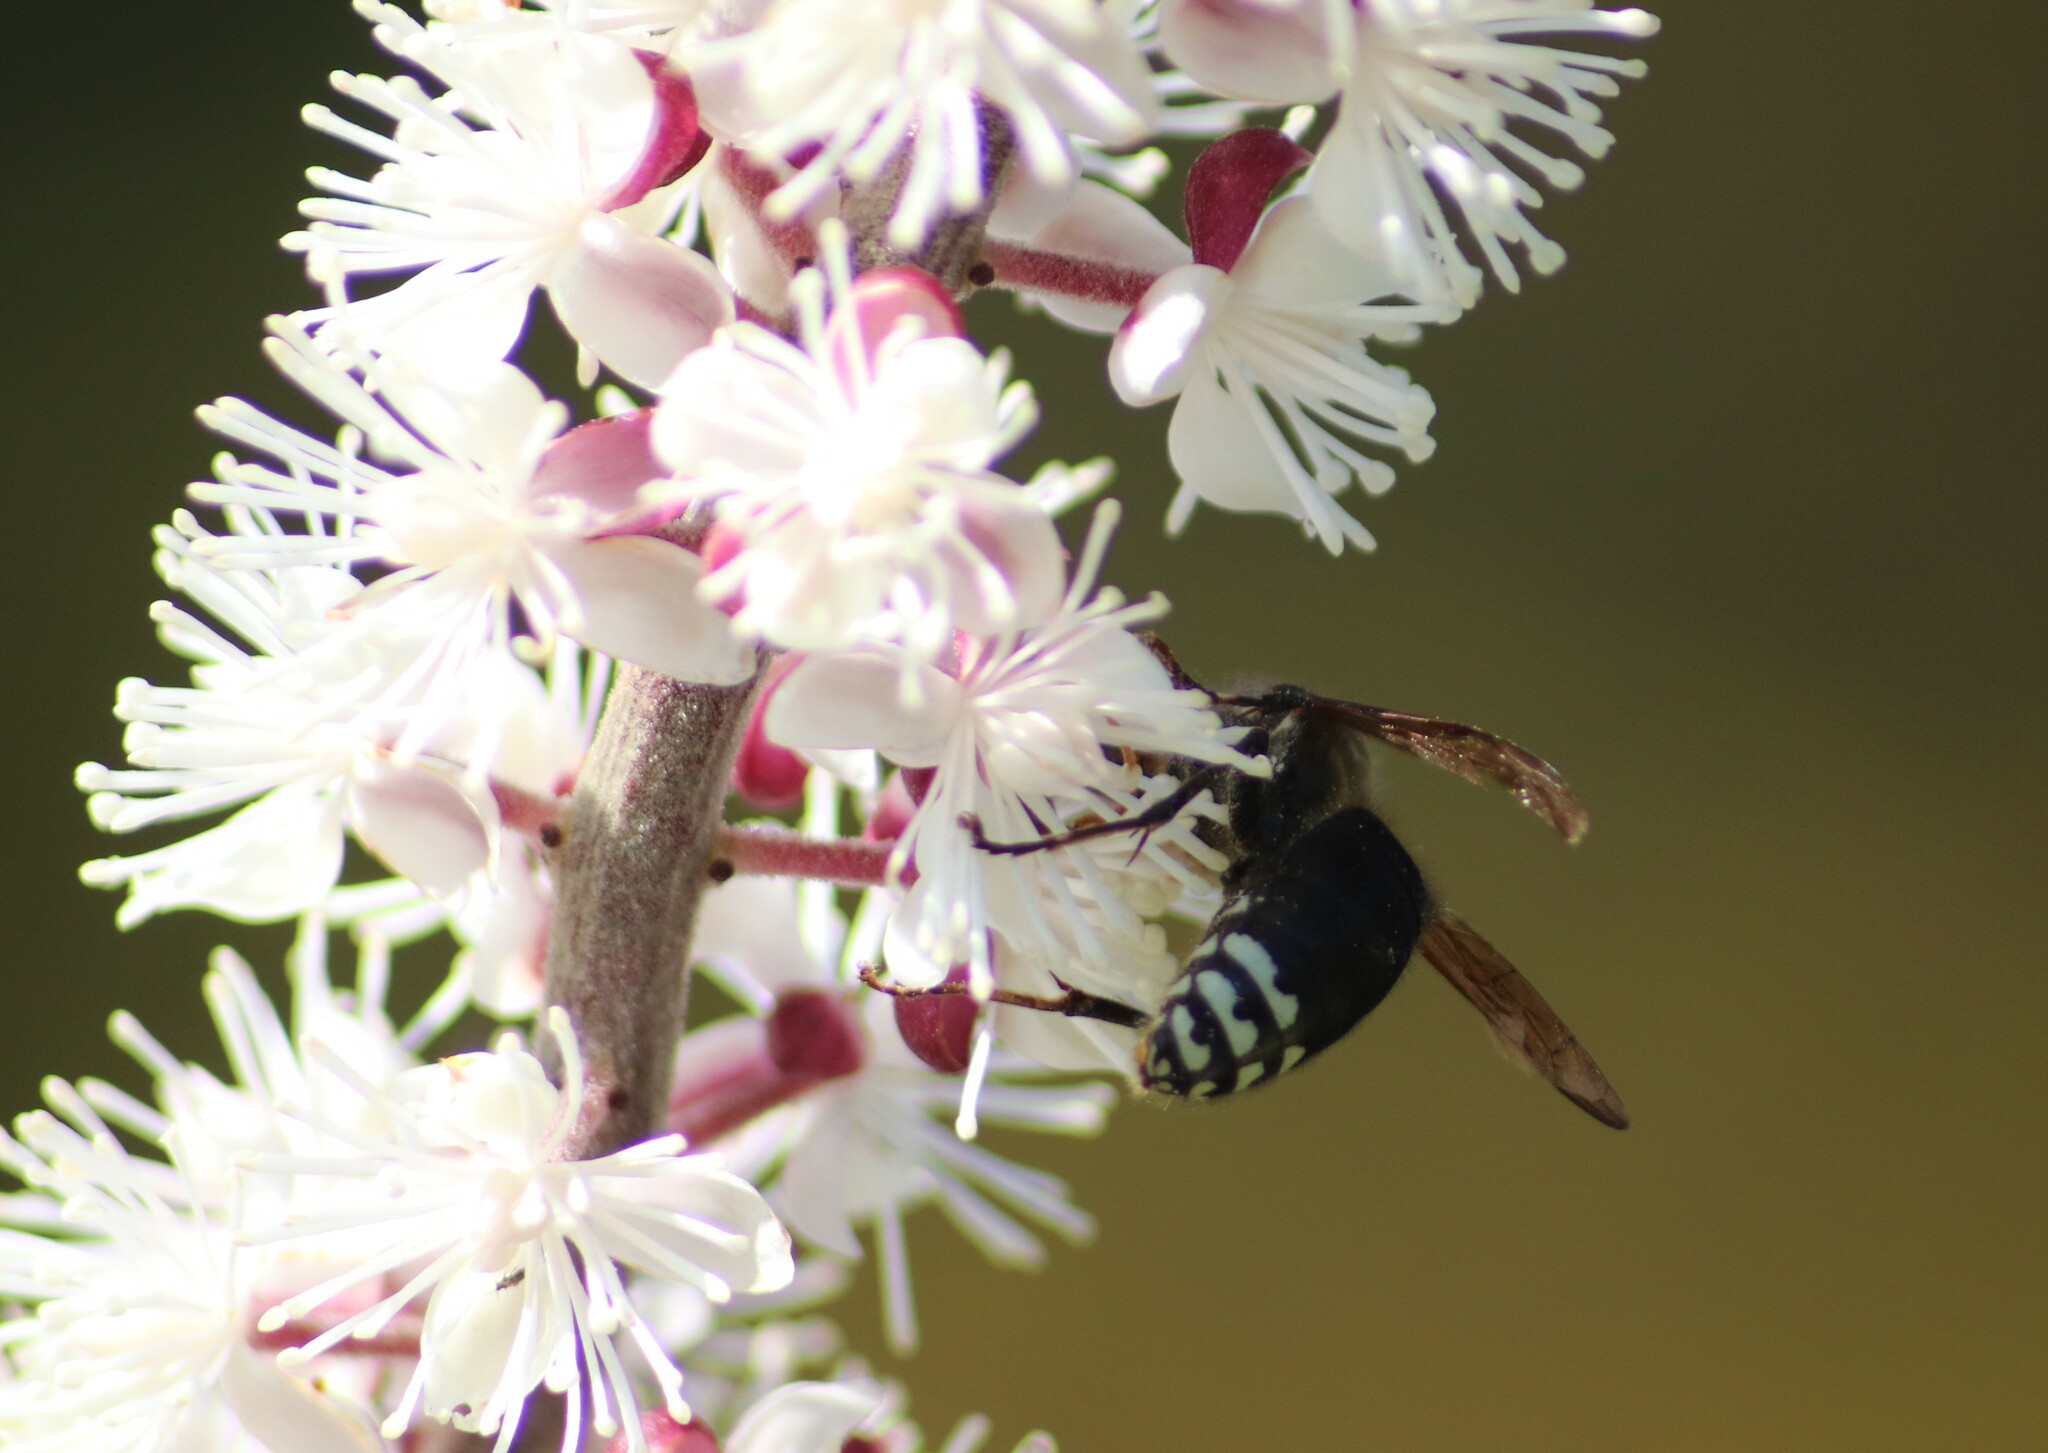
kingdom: Animalia
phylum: Arthropoda
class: Insecta
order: Hymenoptera
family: Vespidae
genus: Dolichovespula
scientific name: Dolichovespula maculata
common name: Bald-faced hornet
